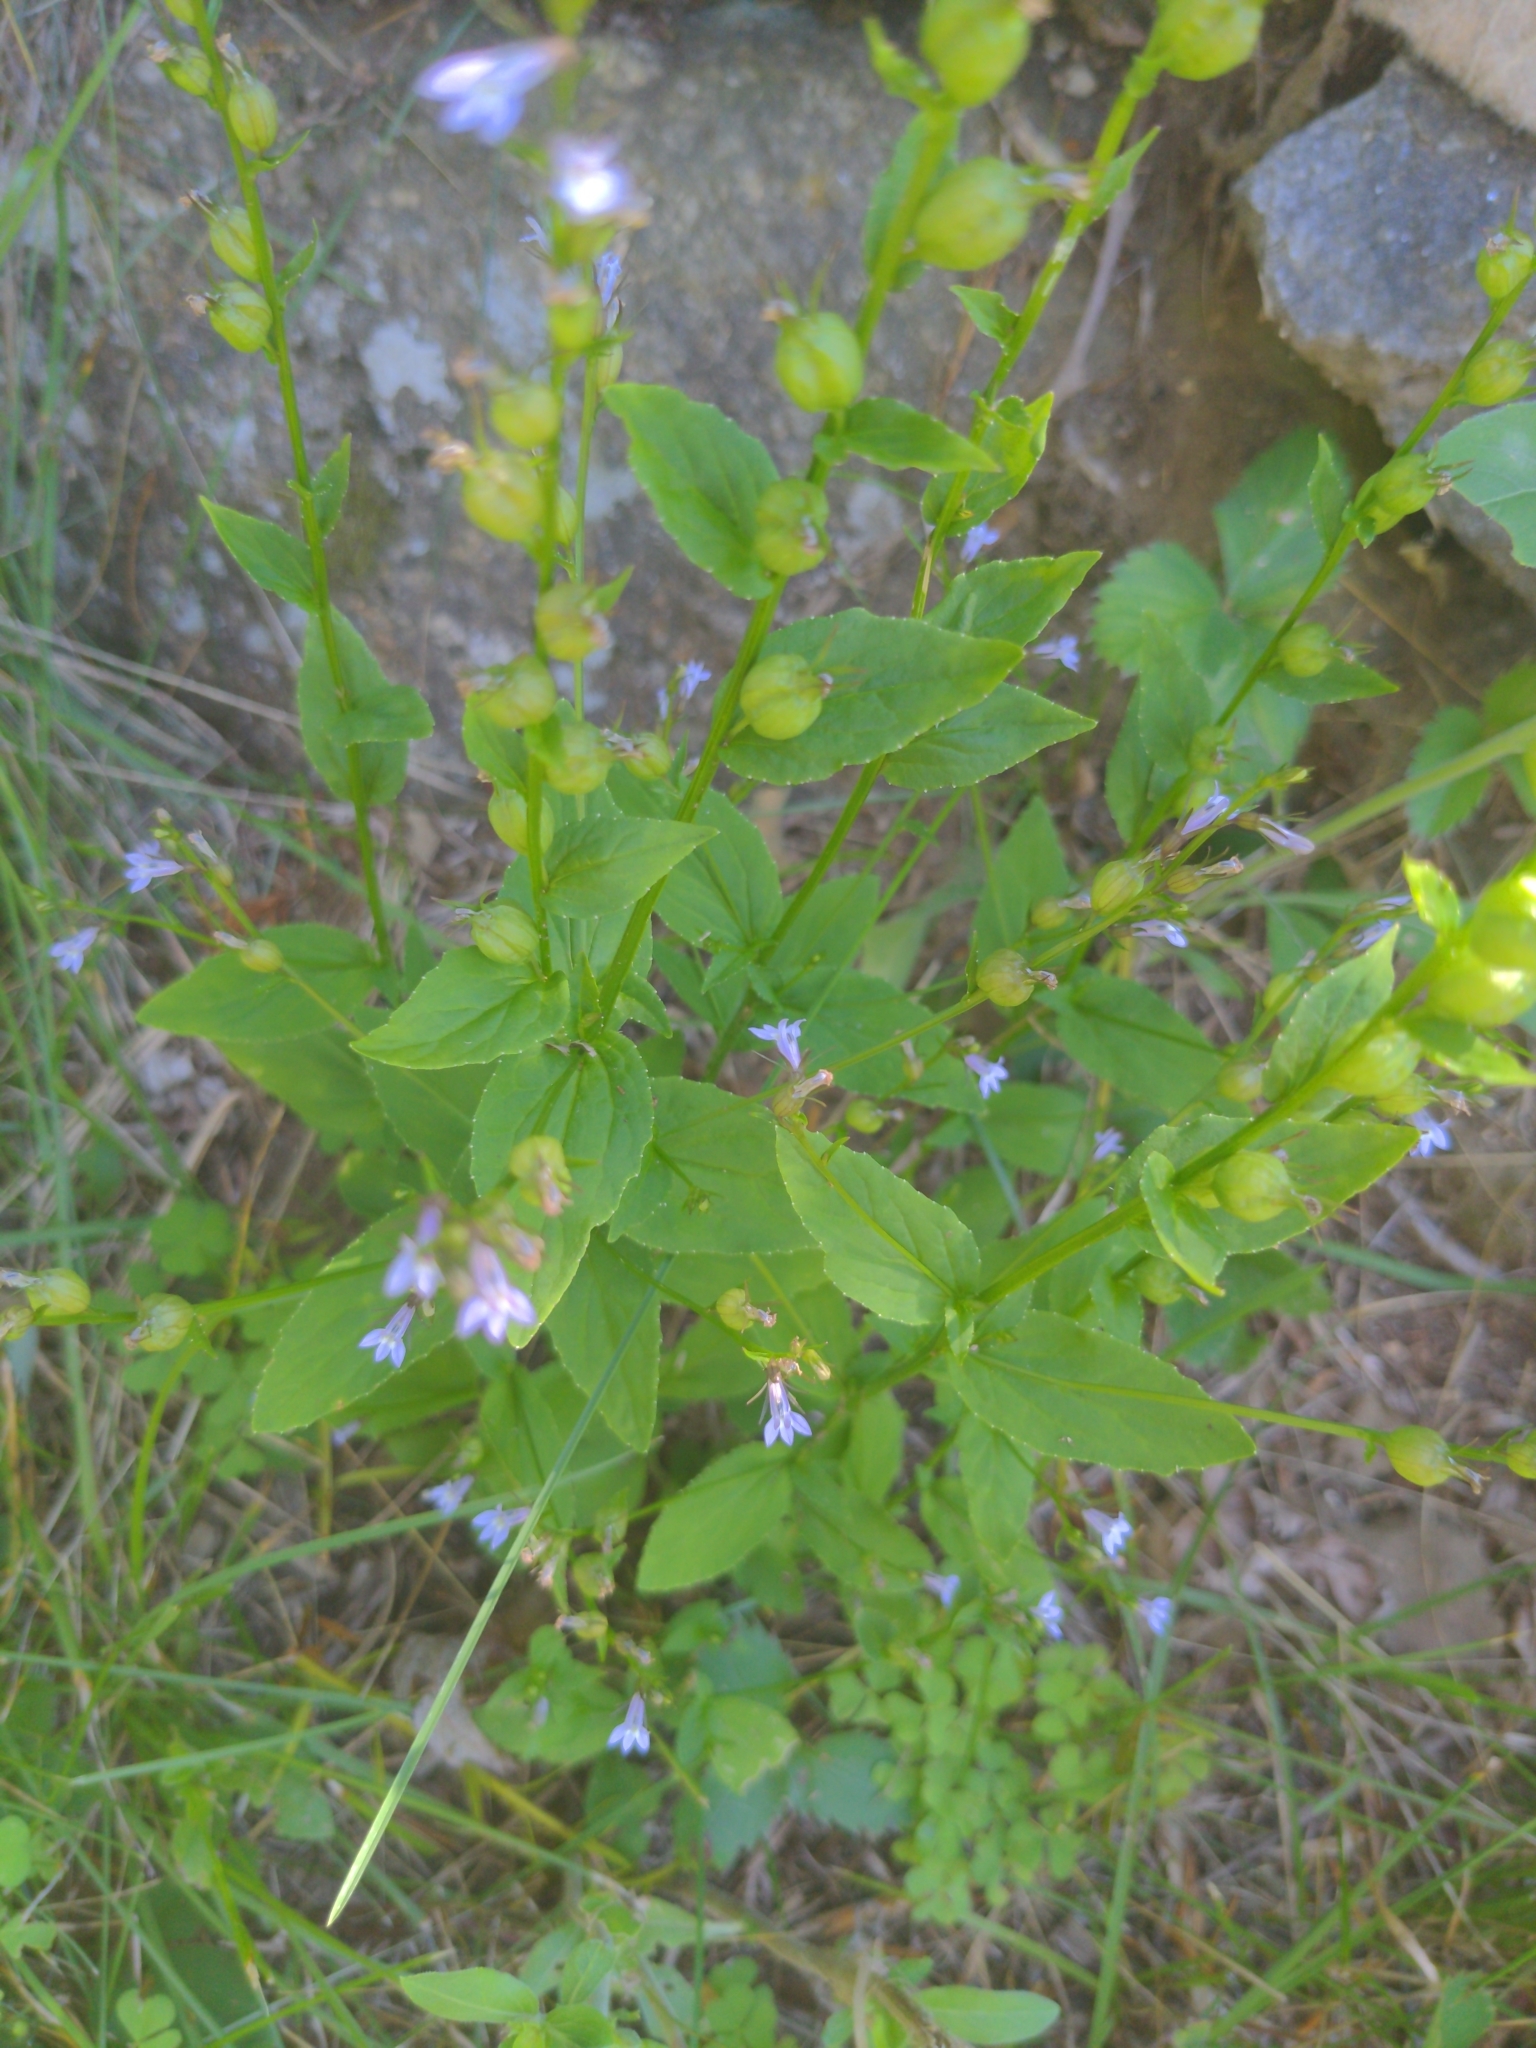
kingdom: Plantae
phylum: Tracheophyta
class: Magnoliopsida
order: Asterales
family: Campanulaceae
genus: Lobelia
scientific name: Lobelia inflata
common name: Indian tobacco
